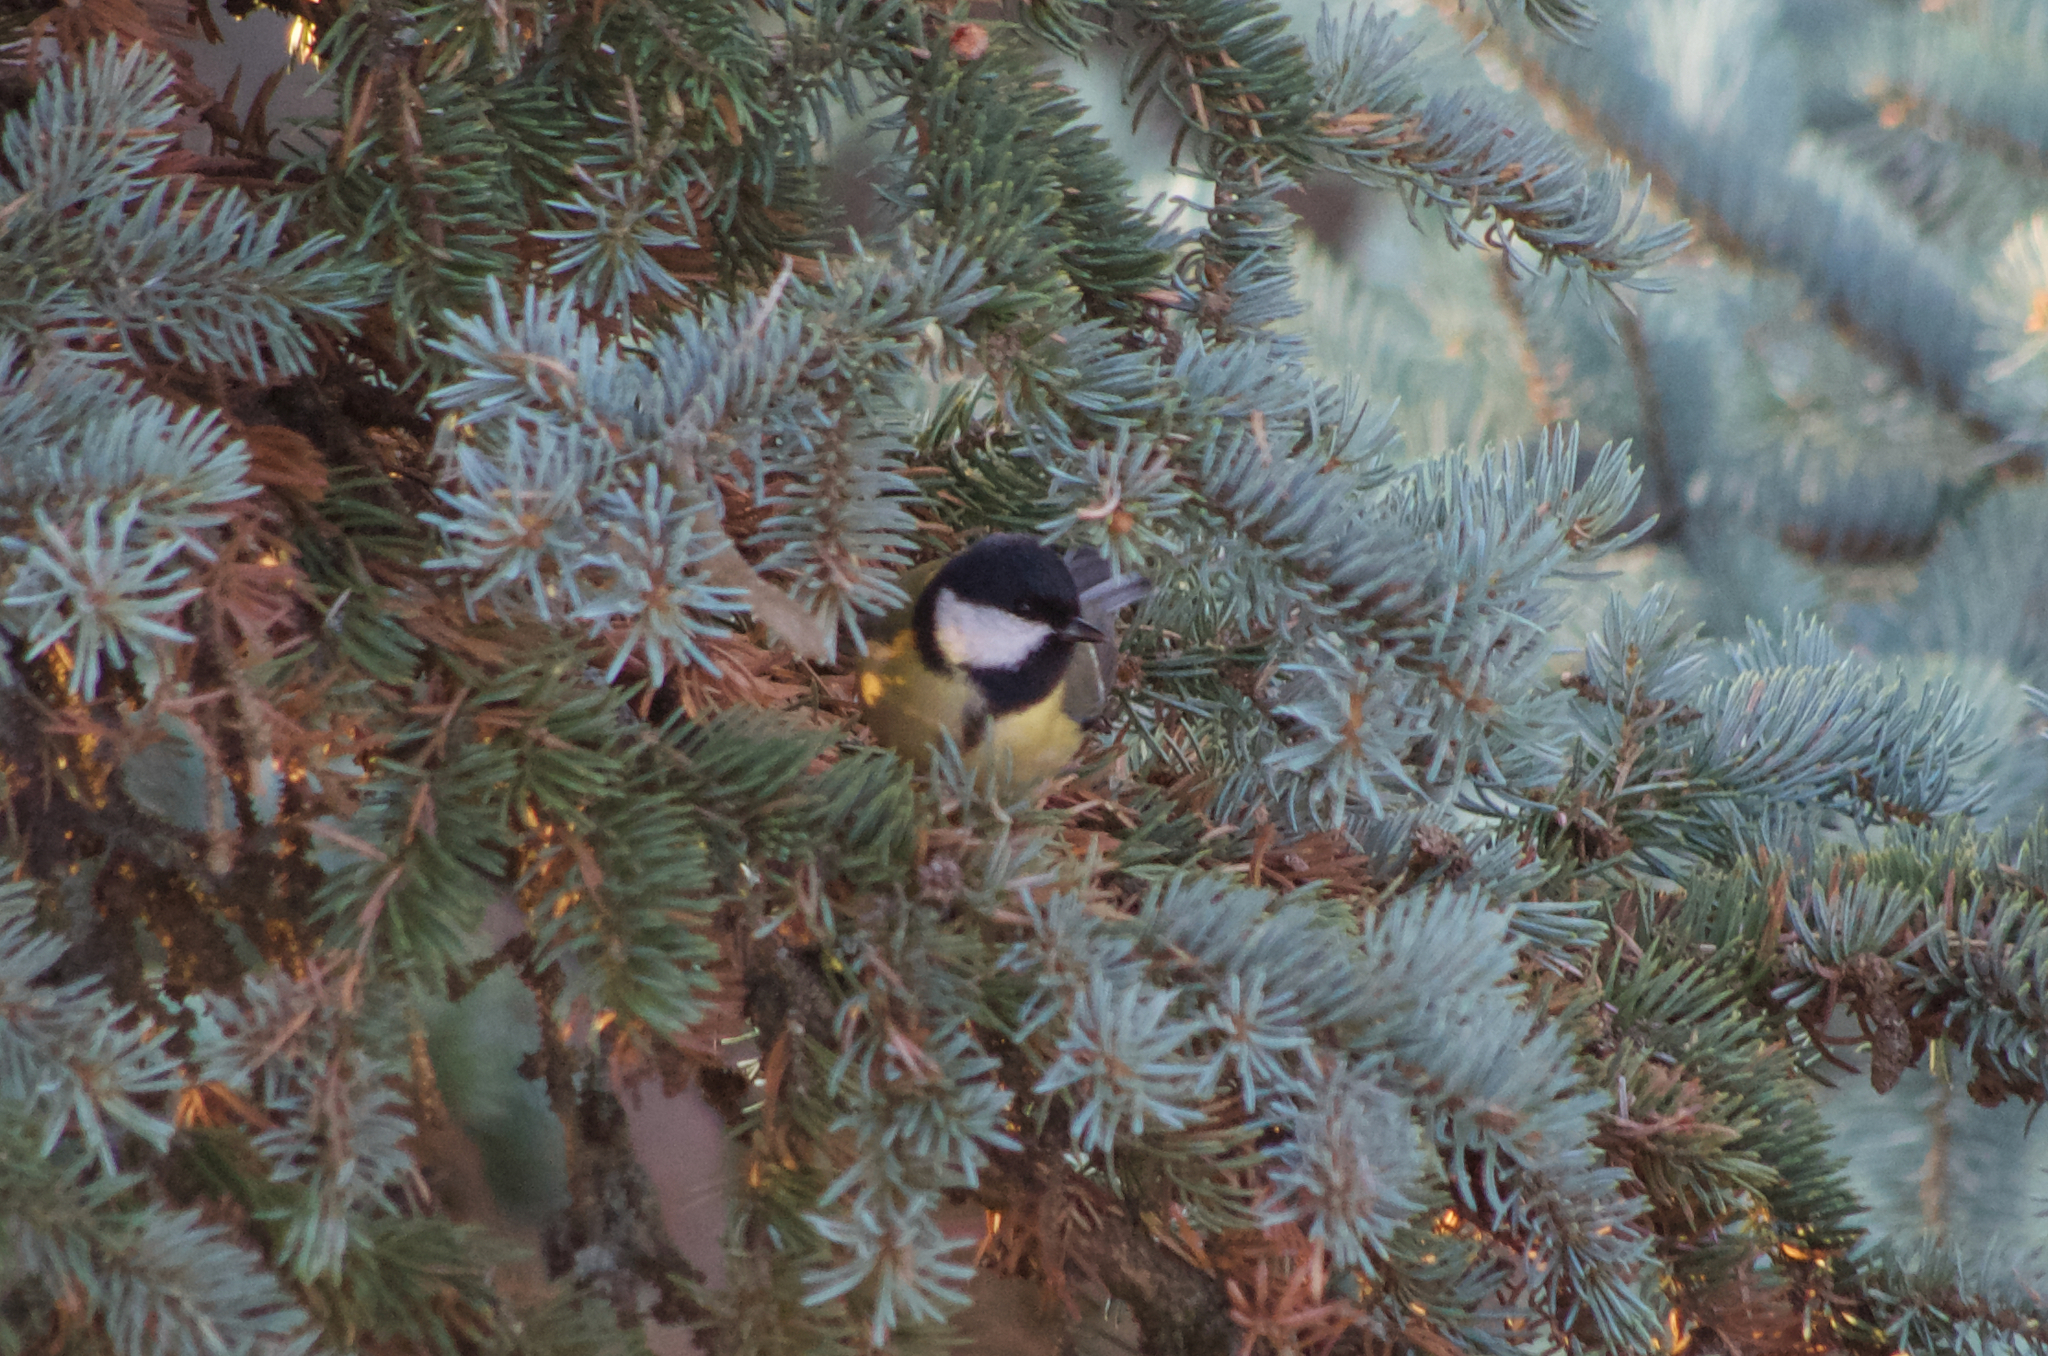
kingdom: Animalia
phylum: Chordata
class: Aves
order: Passeriformes
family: Paridae
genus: Parus
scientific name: Parus major
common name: Great tit
